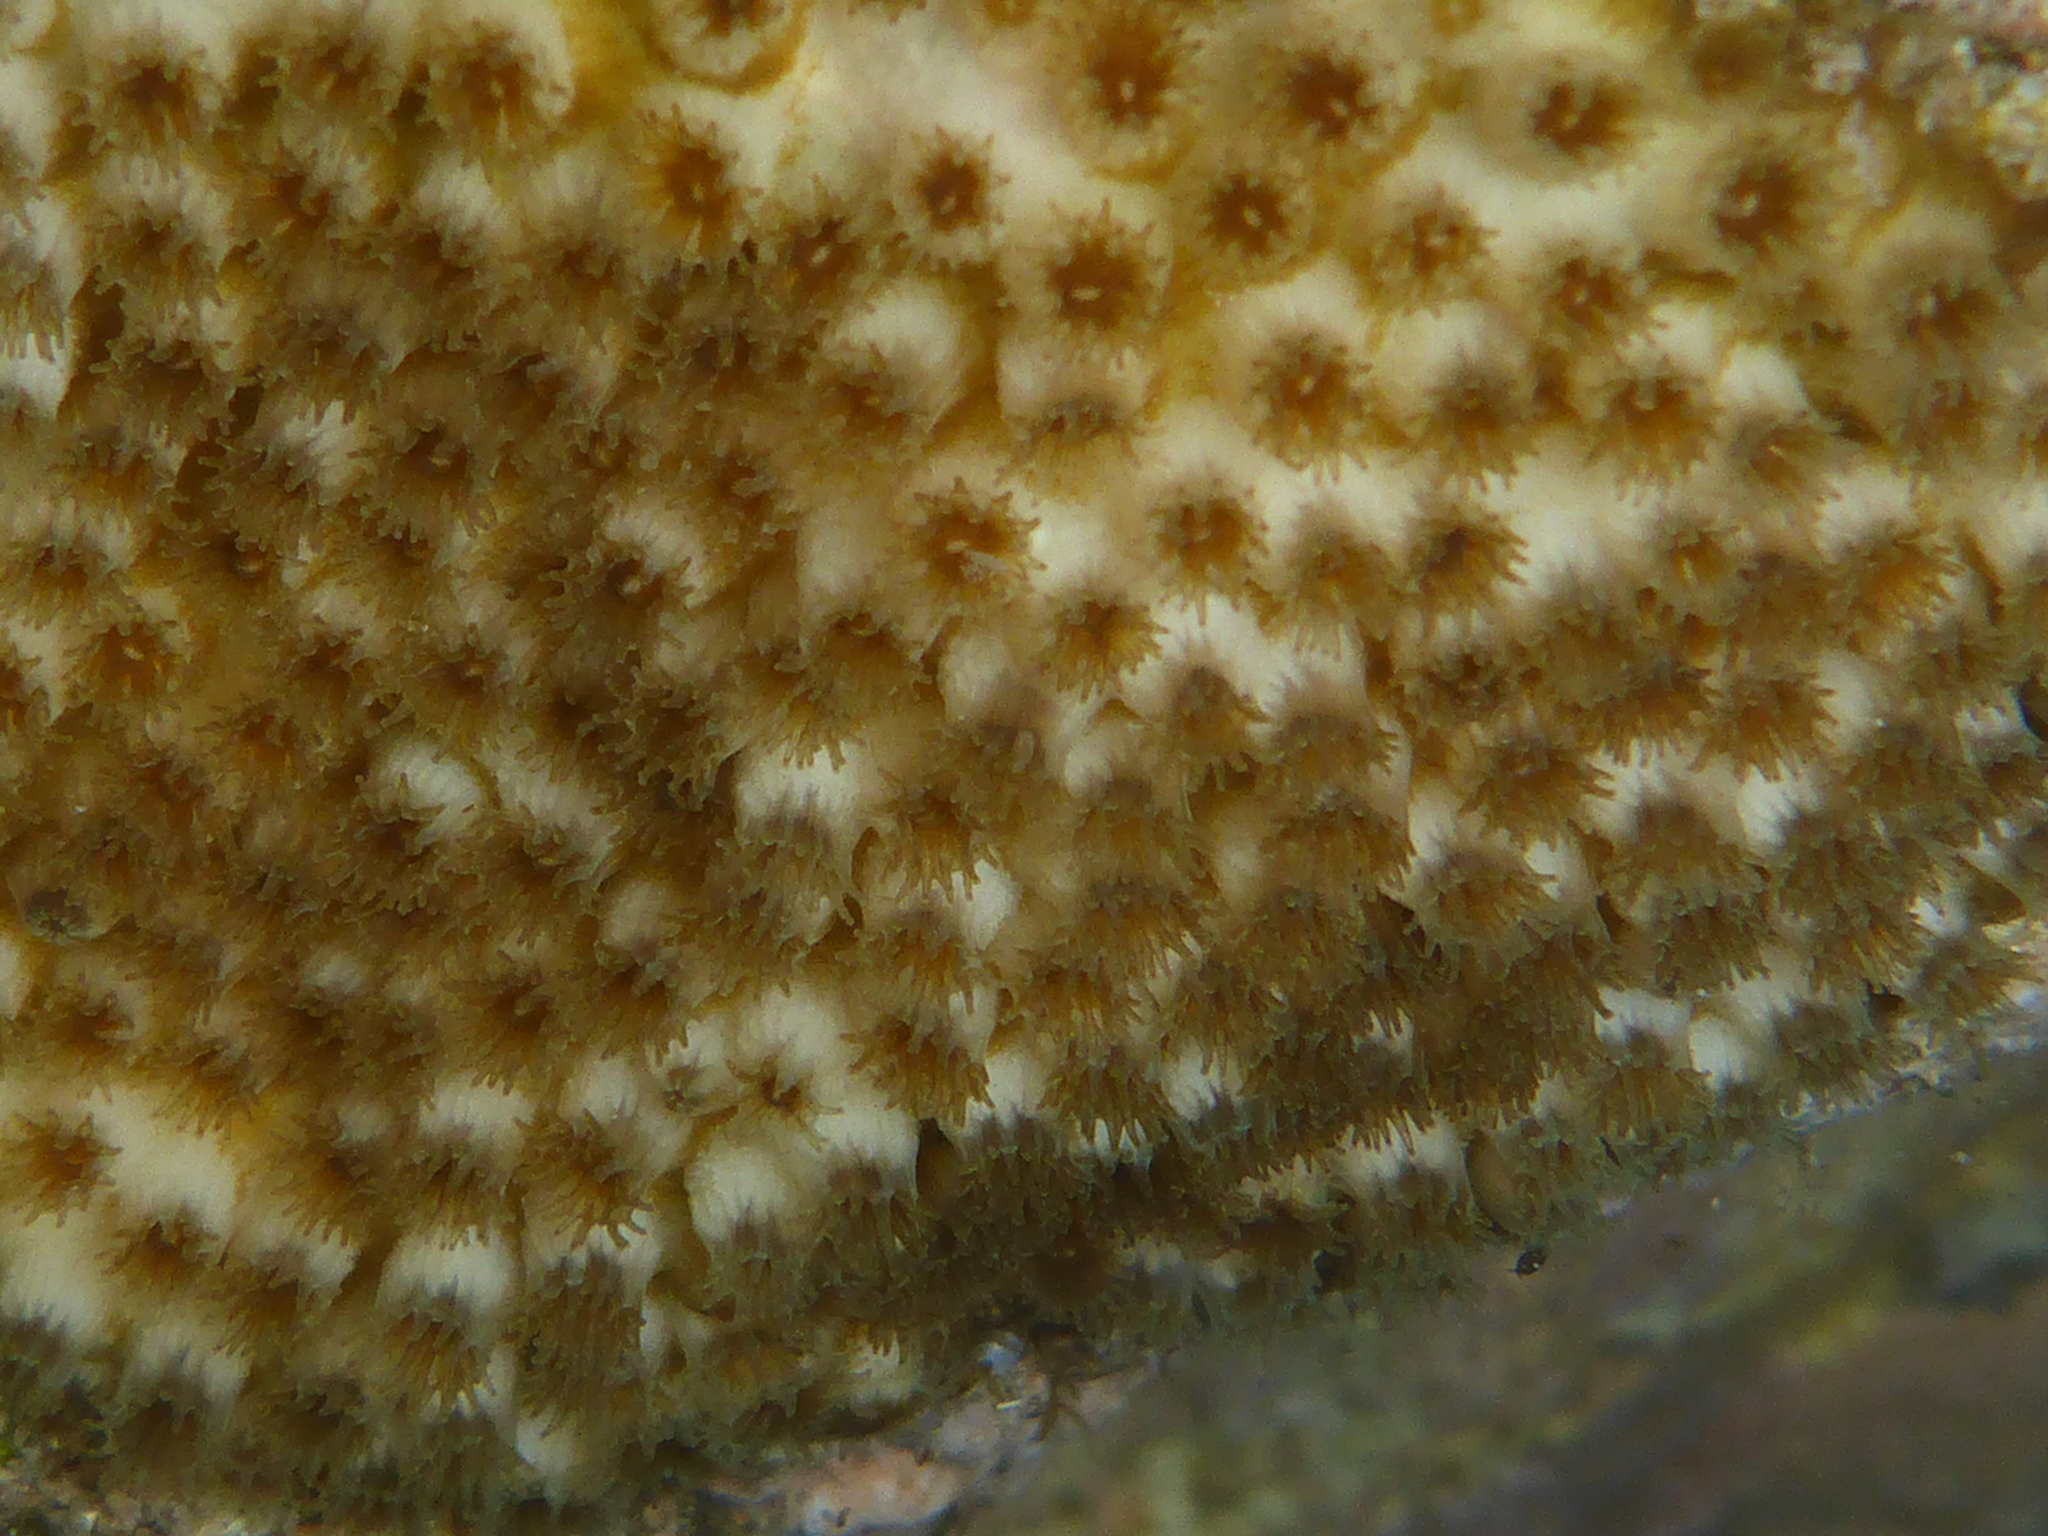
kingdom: Animalia
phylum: Cnidaria
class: Anthozoa
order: Scleractinia
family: Merulinidae
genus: Cyphastrea
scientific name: Cyphastrea ocellina
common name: Lesser knob coral
